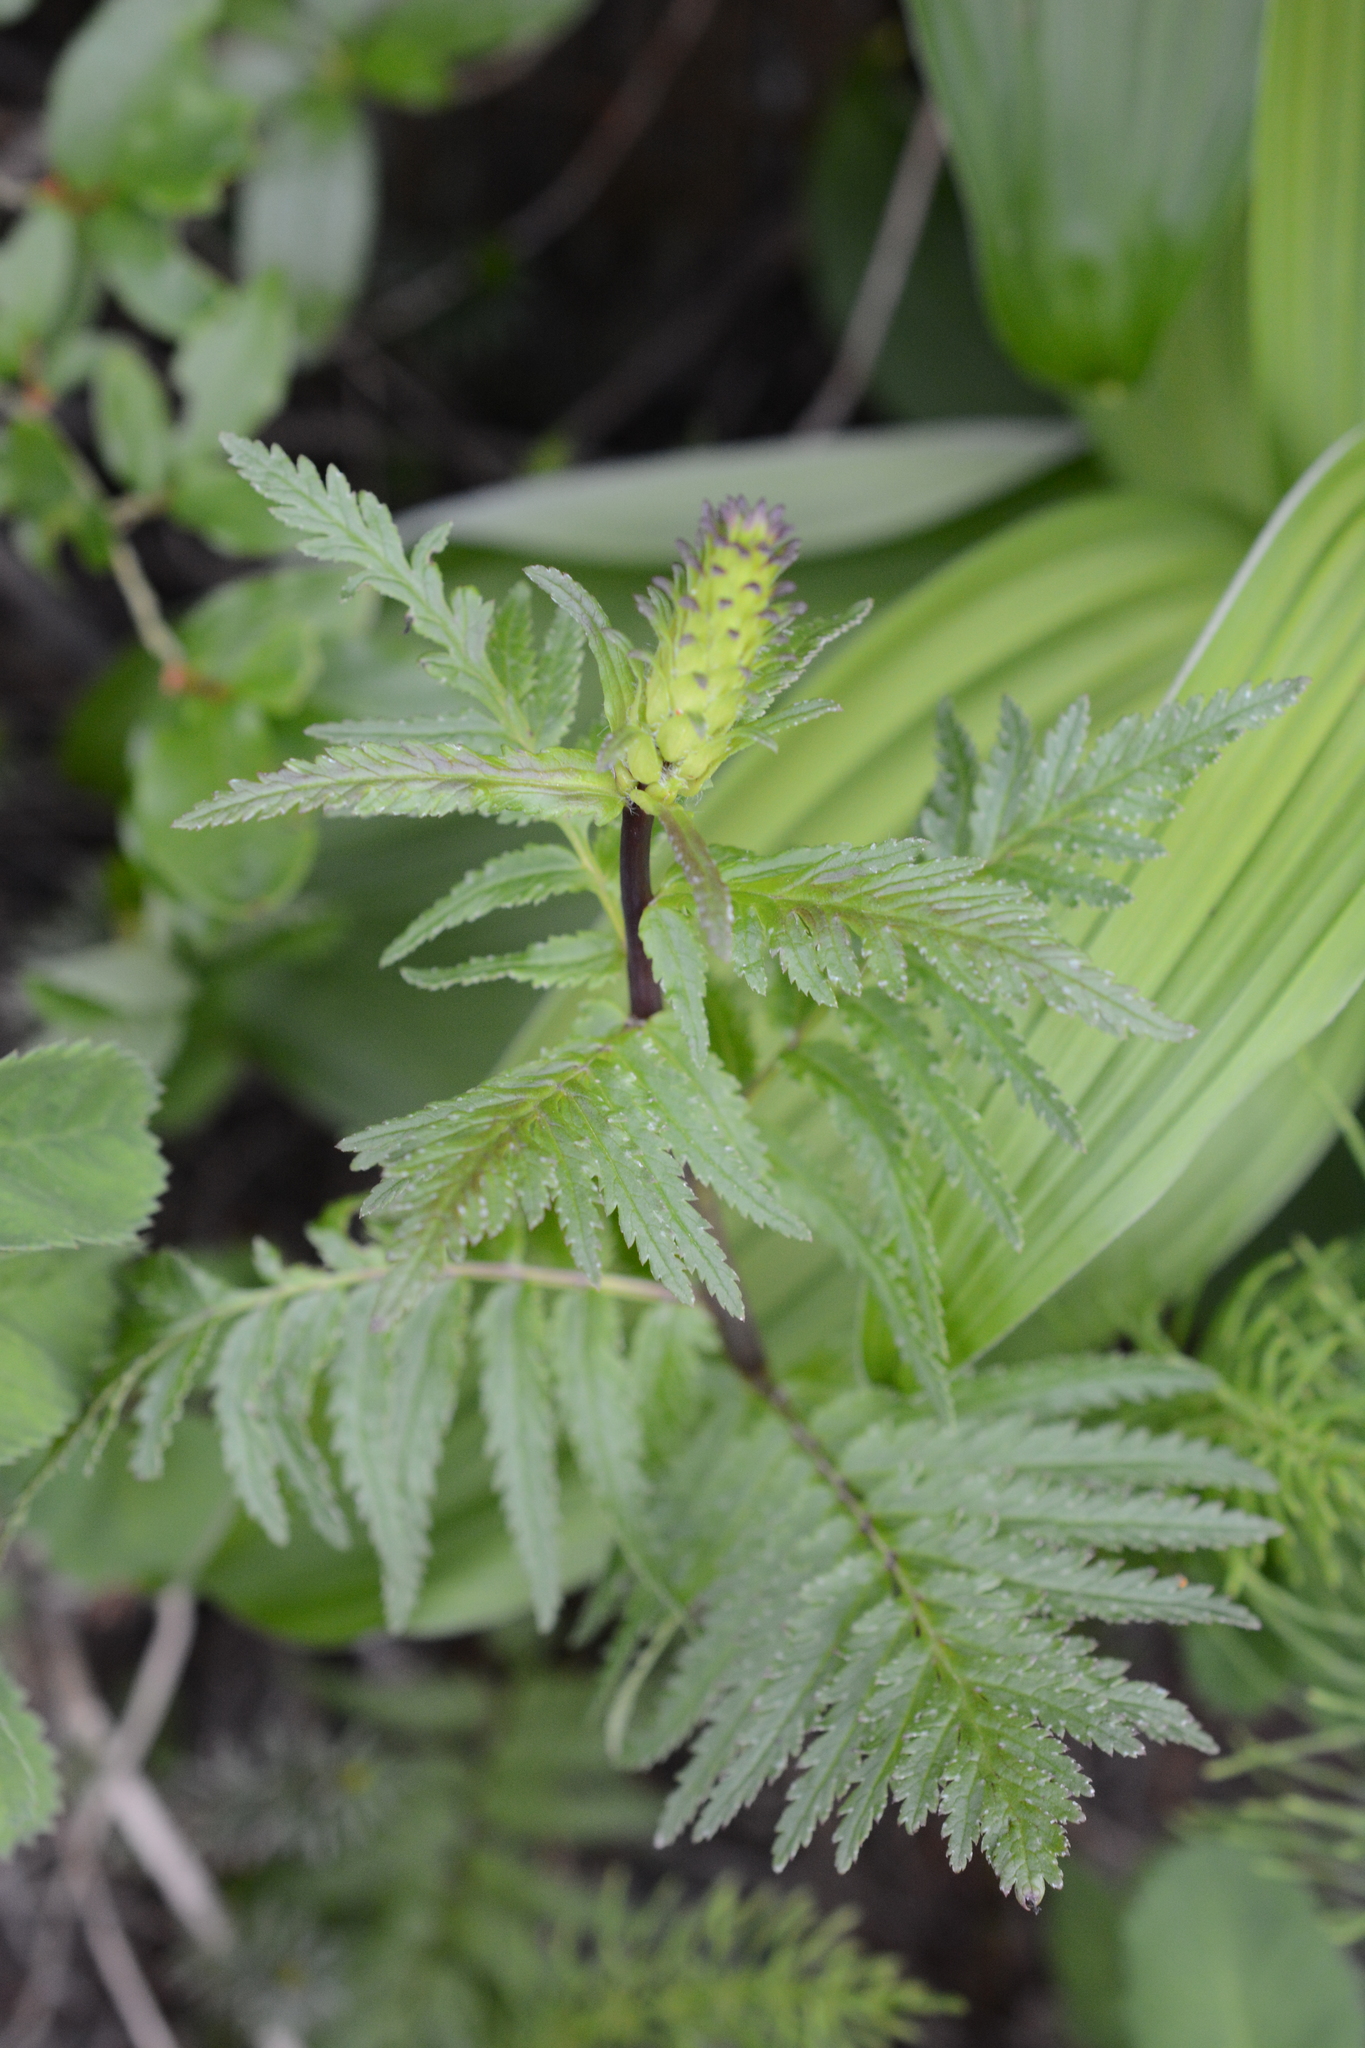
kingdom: Plantae
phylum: Tracheophyta
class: Magnoliopsida
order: Lamiales
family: Orobanchaceae
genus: Pedicularis
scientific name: Pedicularis bracteosa
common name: Bracted lousewort
